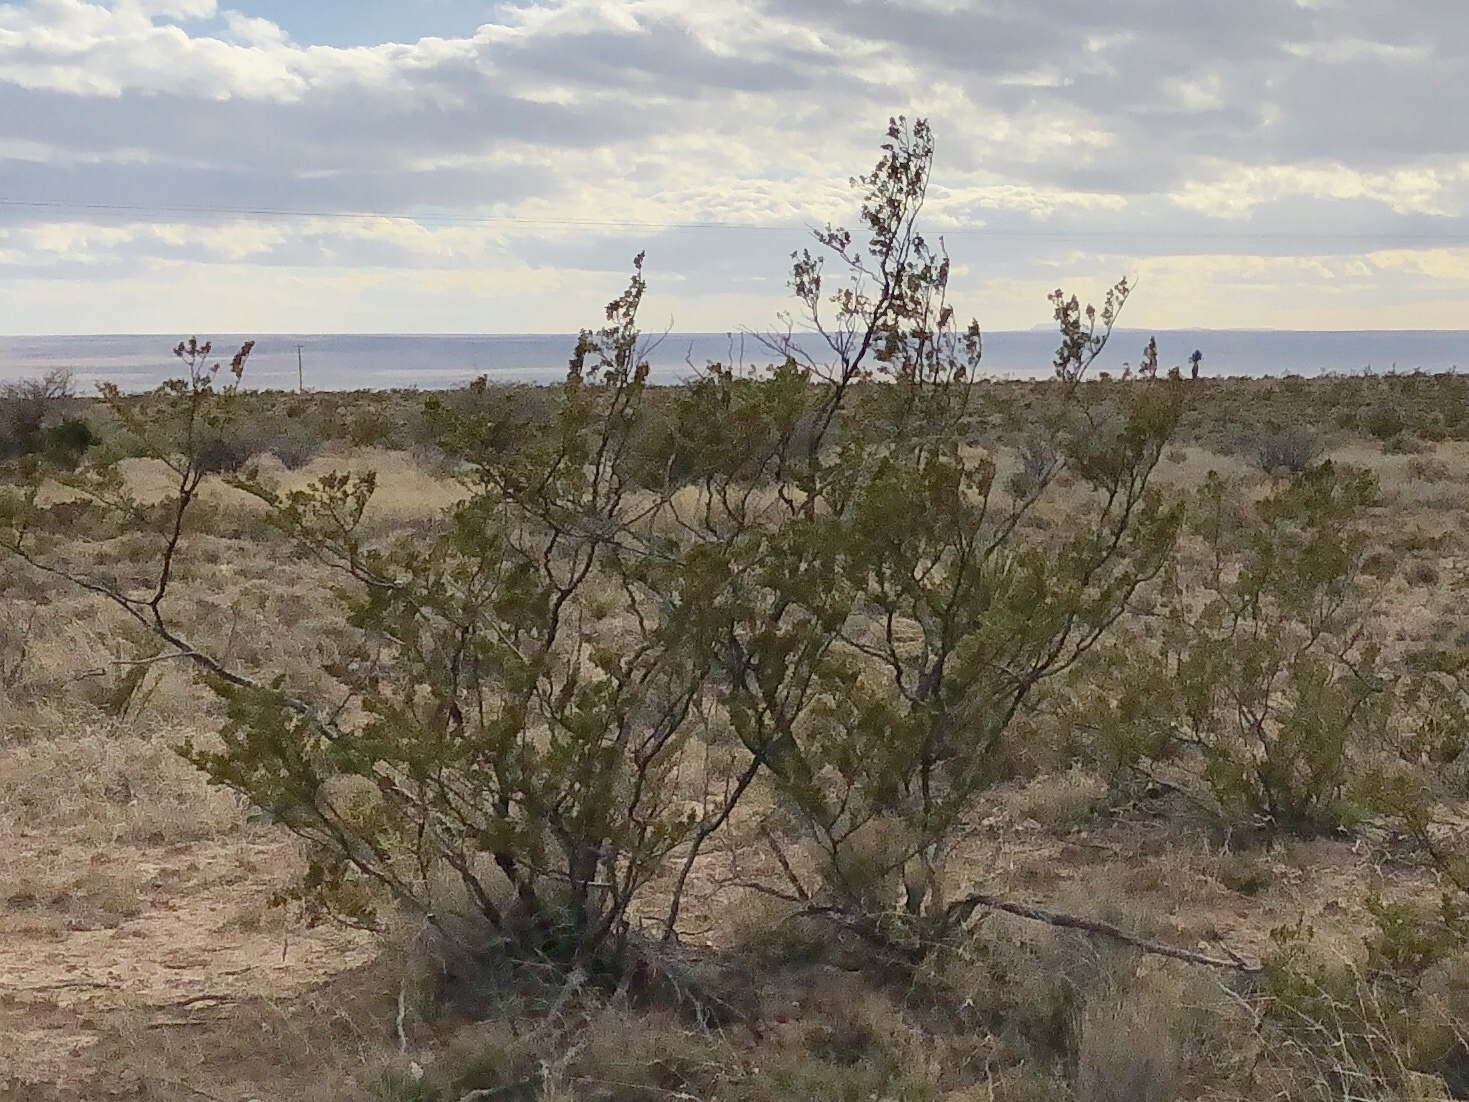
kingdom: Plantae
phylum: Tracheophyta
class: Magnoliopsida
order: Zygophyllales
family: Zygophyllaceae
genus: Larrea
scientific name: Larrea tridentata
